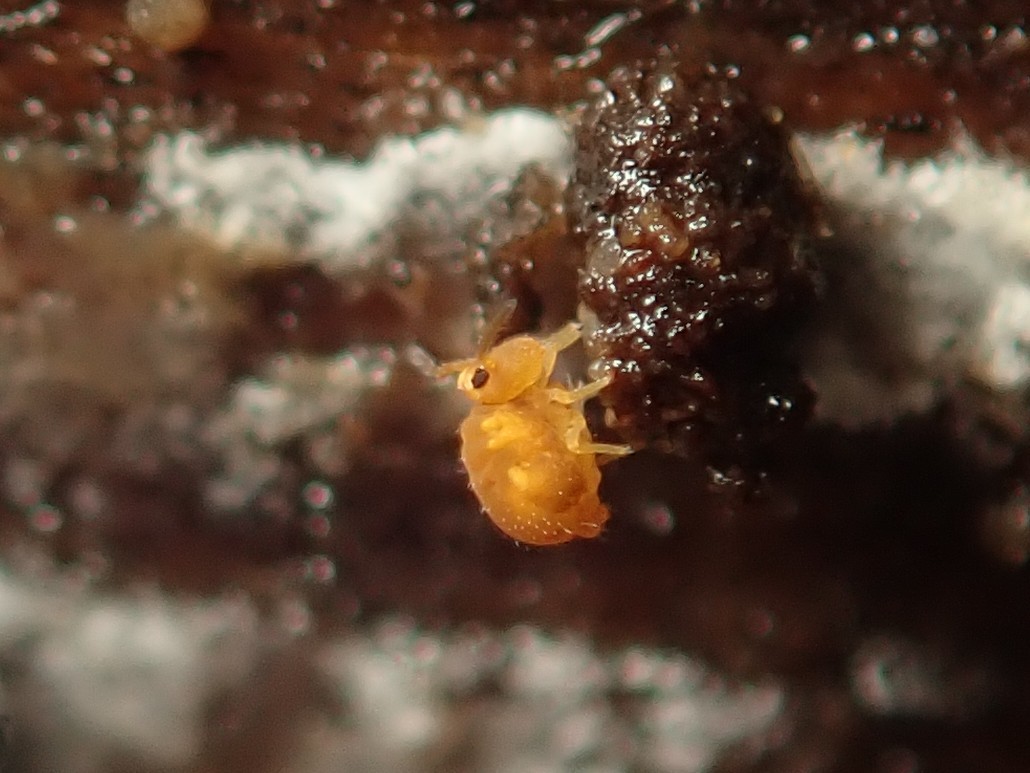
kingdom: Animalia
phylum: Arthropoda
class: Collembola
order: Symphypleona
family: Katiannidae
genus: Sminthurinus
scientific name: Sminthurinus aureus
